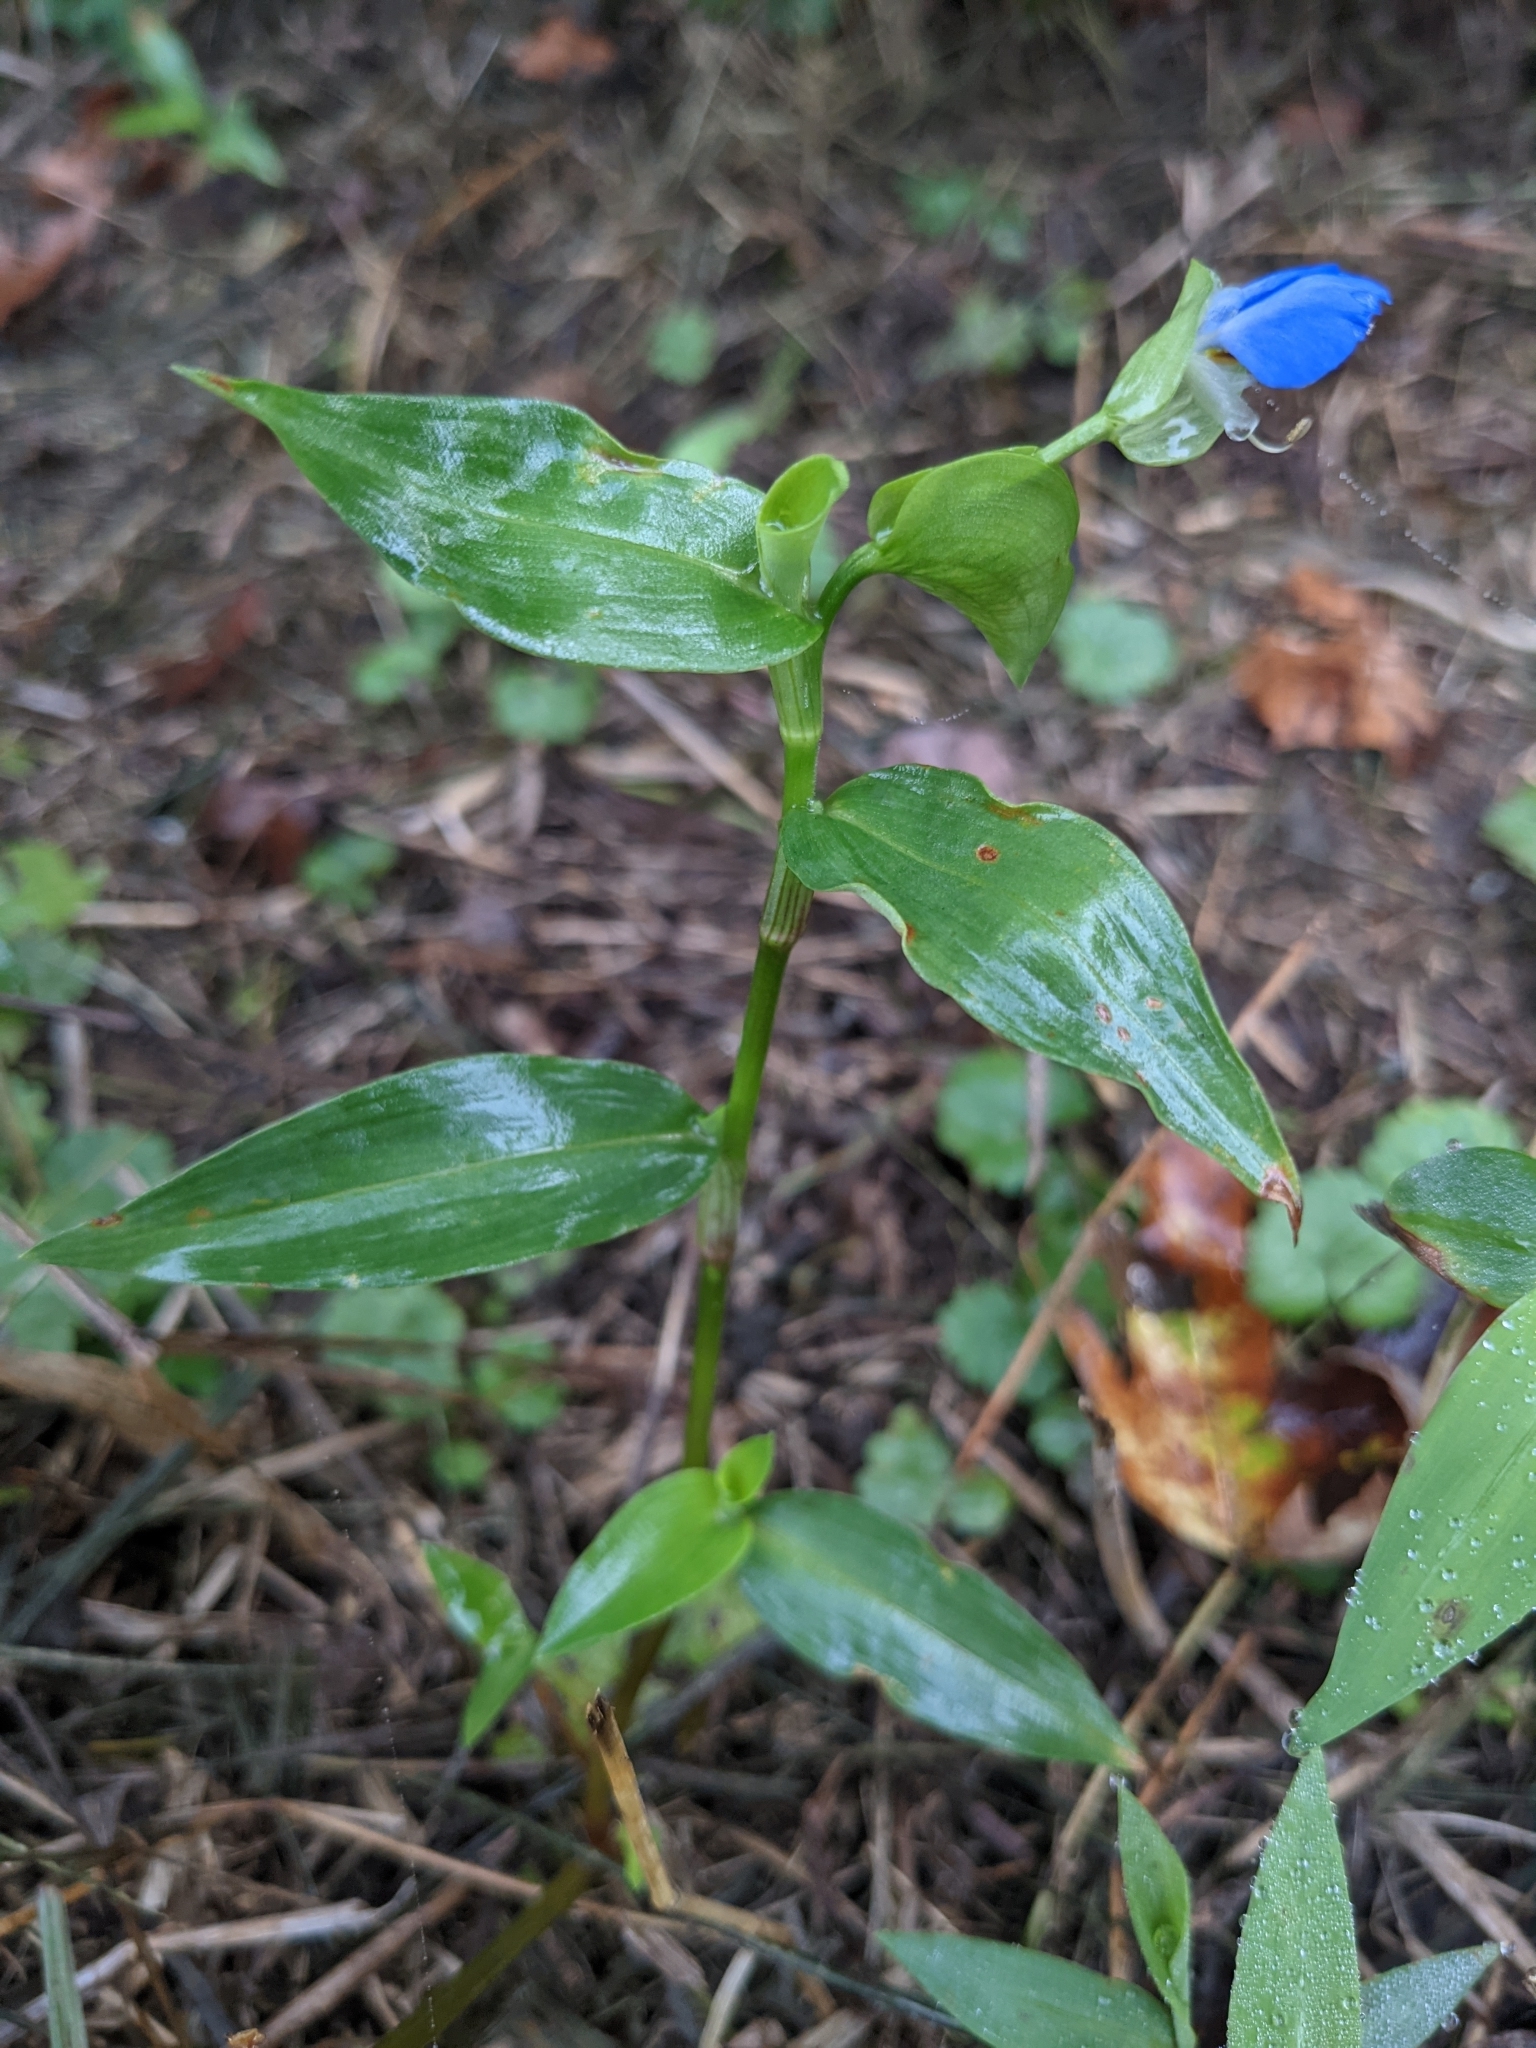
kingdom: Plantae
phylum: Tracheophyta
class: Liliopsida
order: Commelinales
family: Commelinaceae
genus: Commelina
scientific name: Commelina communis
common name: Asiatic dayflower
